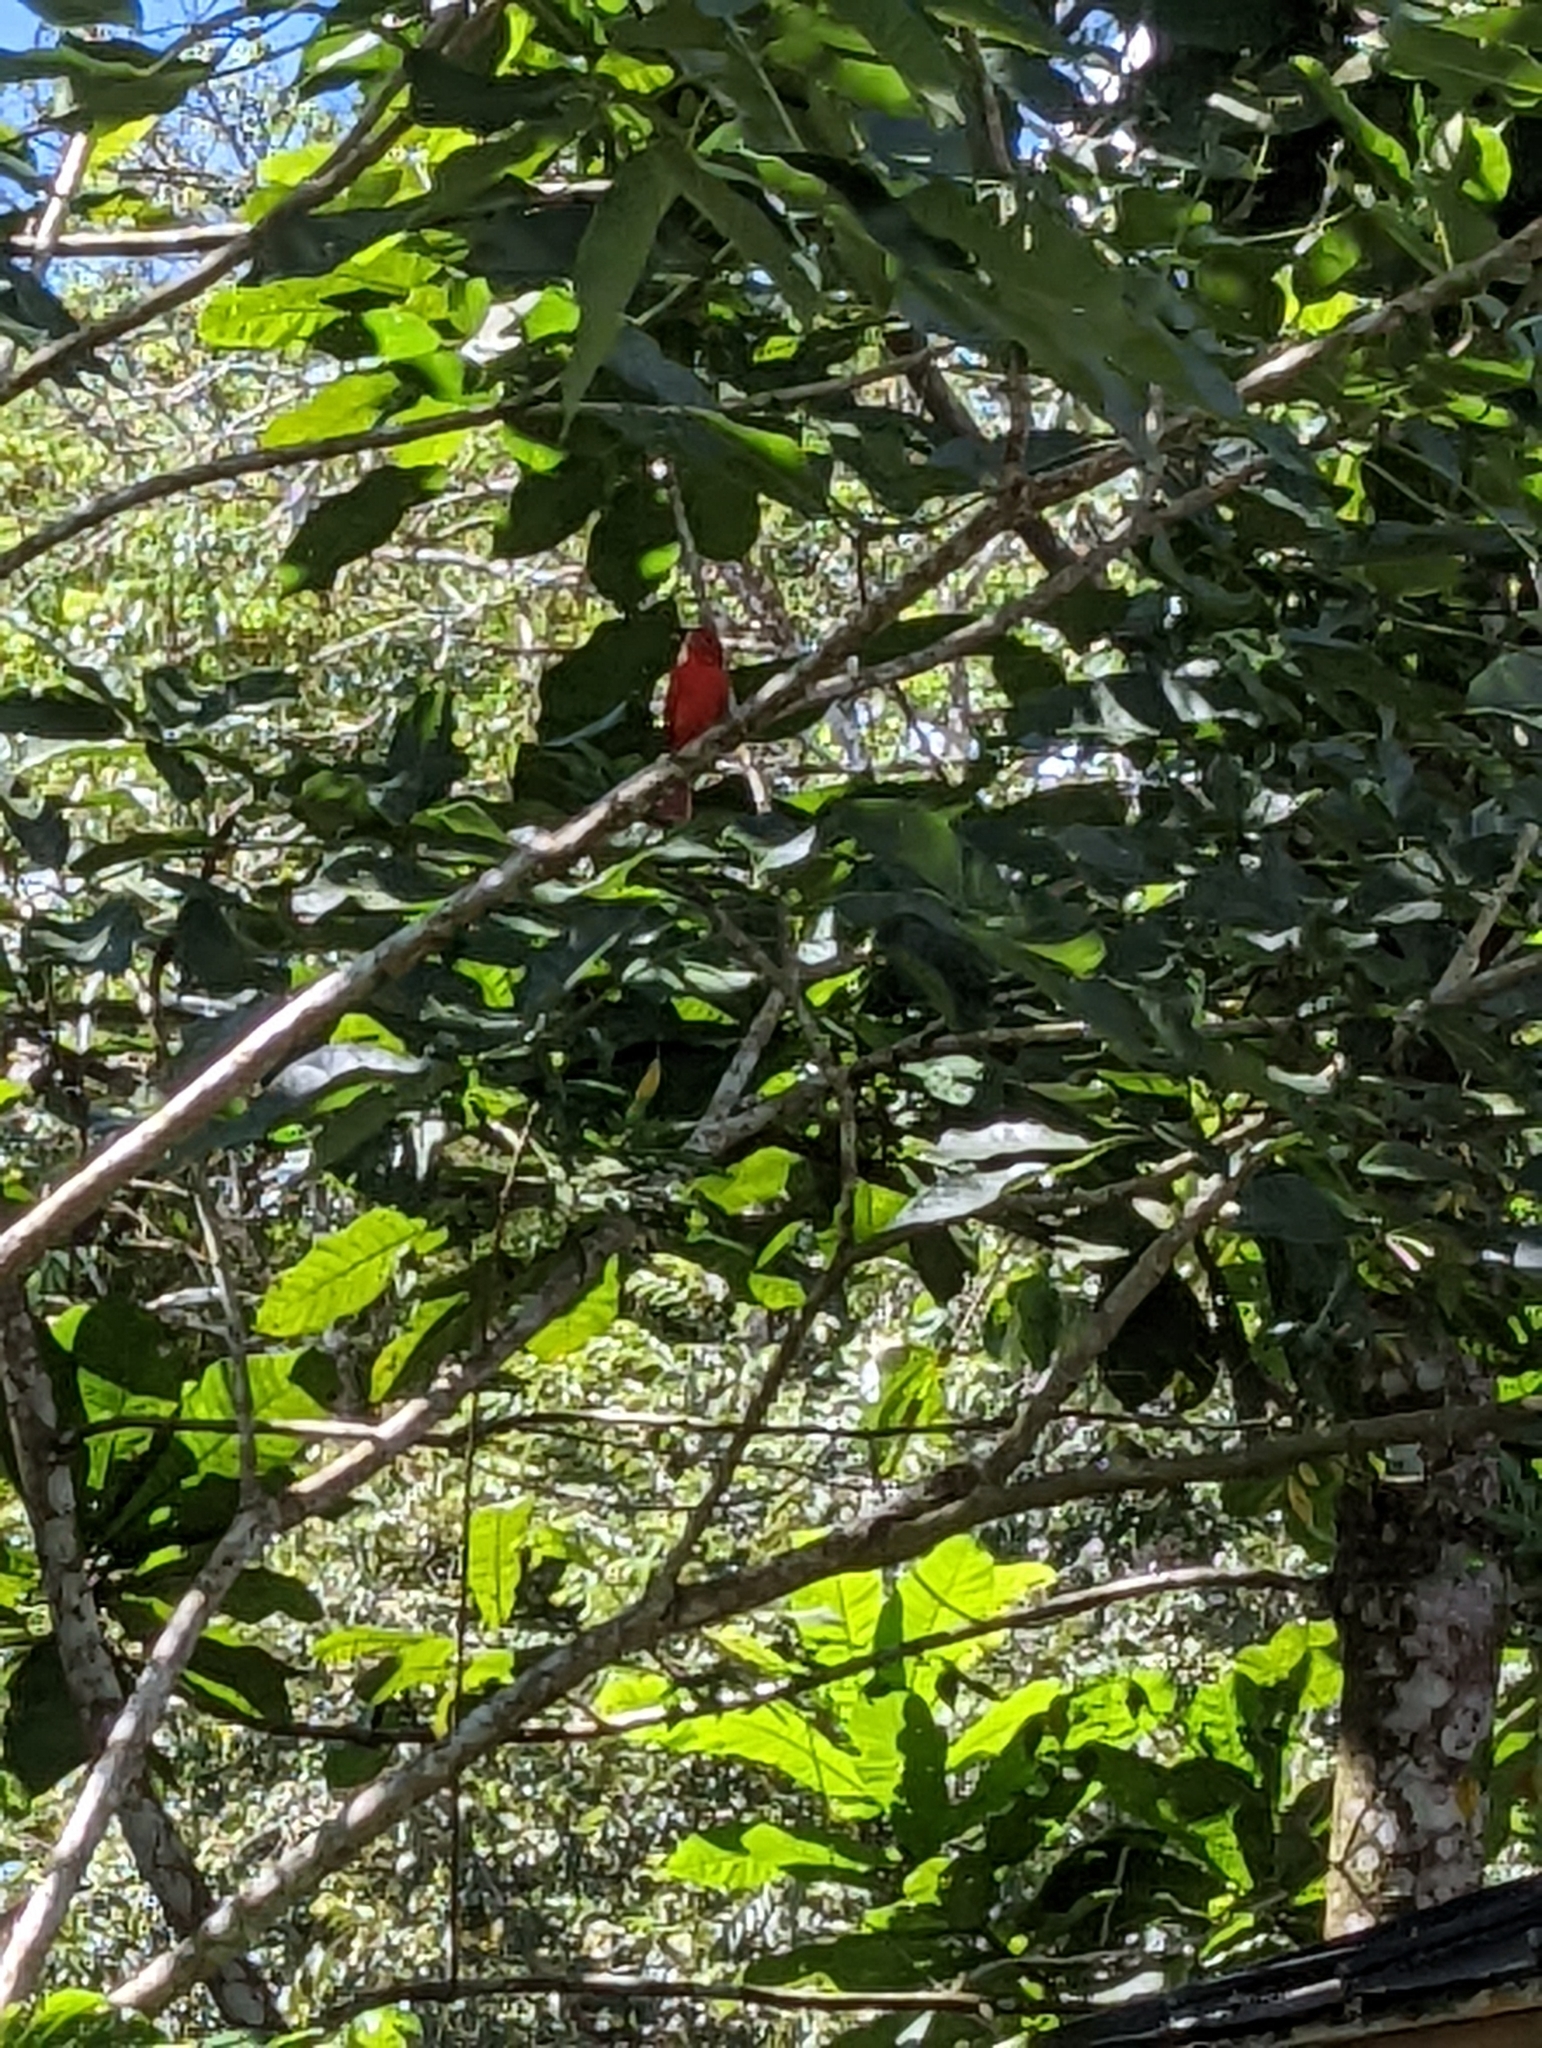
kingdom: Animalia
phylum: Chordata
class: Aves
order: Passeriformes
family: Cardinalidae
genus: Piranga
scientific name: Piranga rubra
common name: Summer tanager
